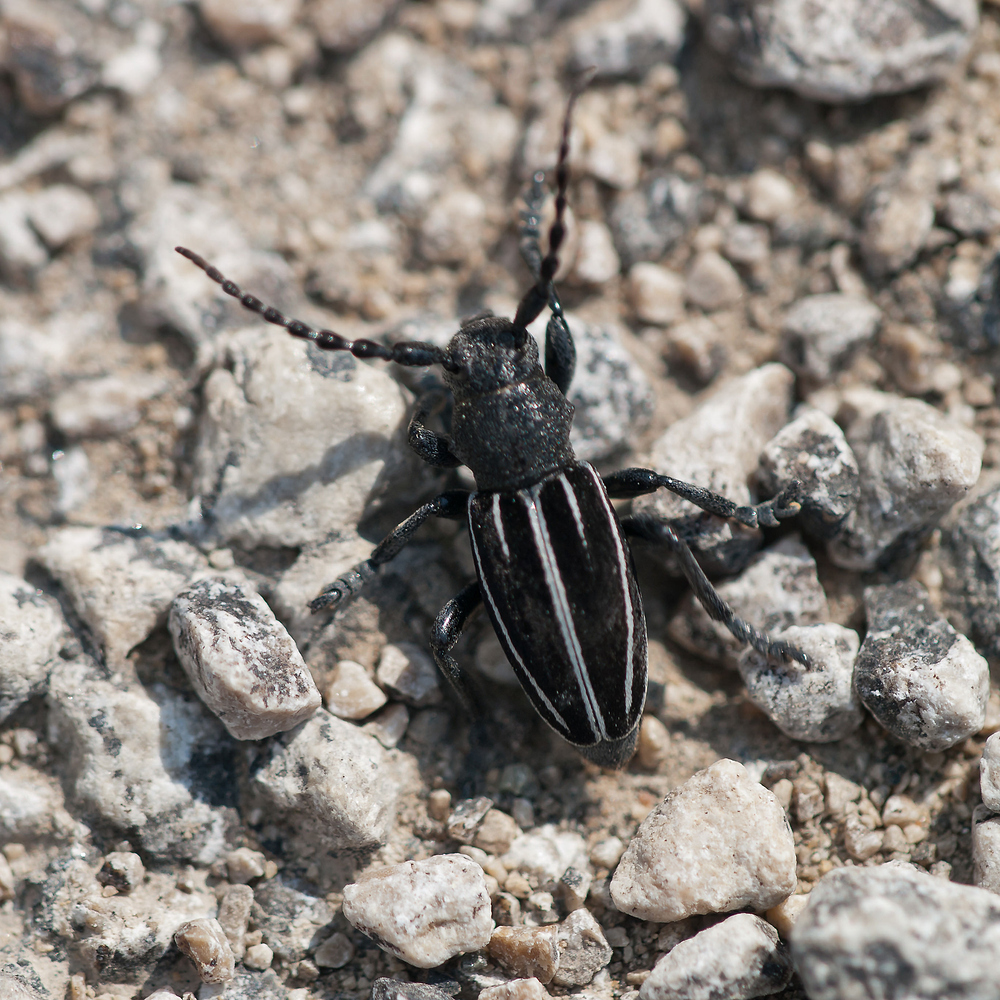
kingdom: Animalia
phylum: Arthropoda
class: Insecta
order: Coleoptera
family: Cerambycidae
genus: Iberodorcadion
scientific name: Iberodorcadion fuliginator
